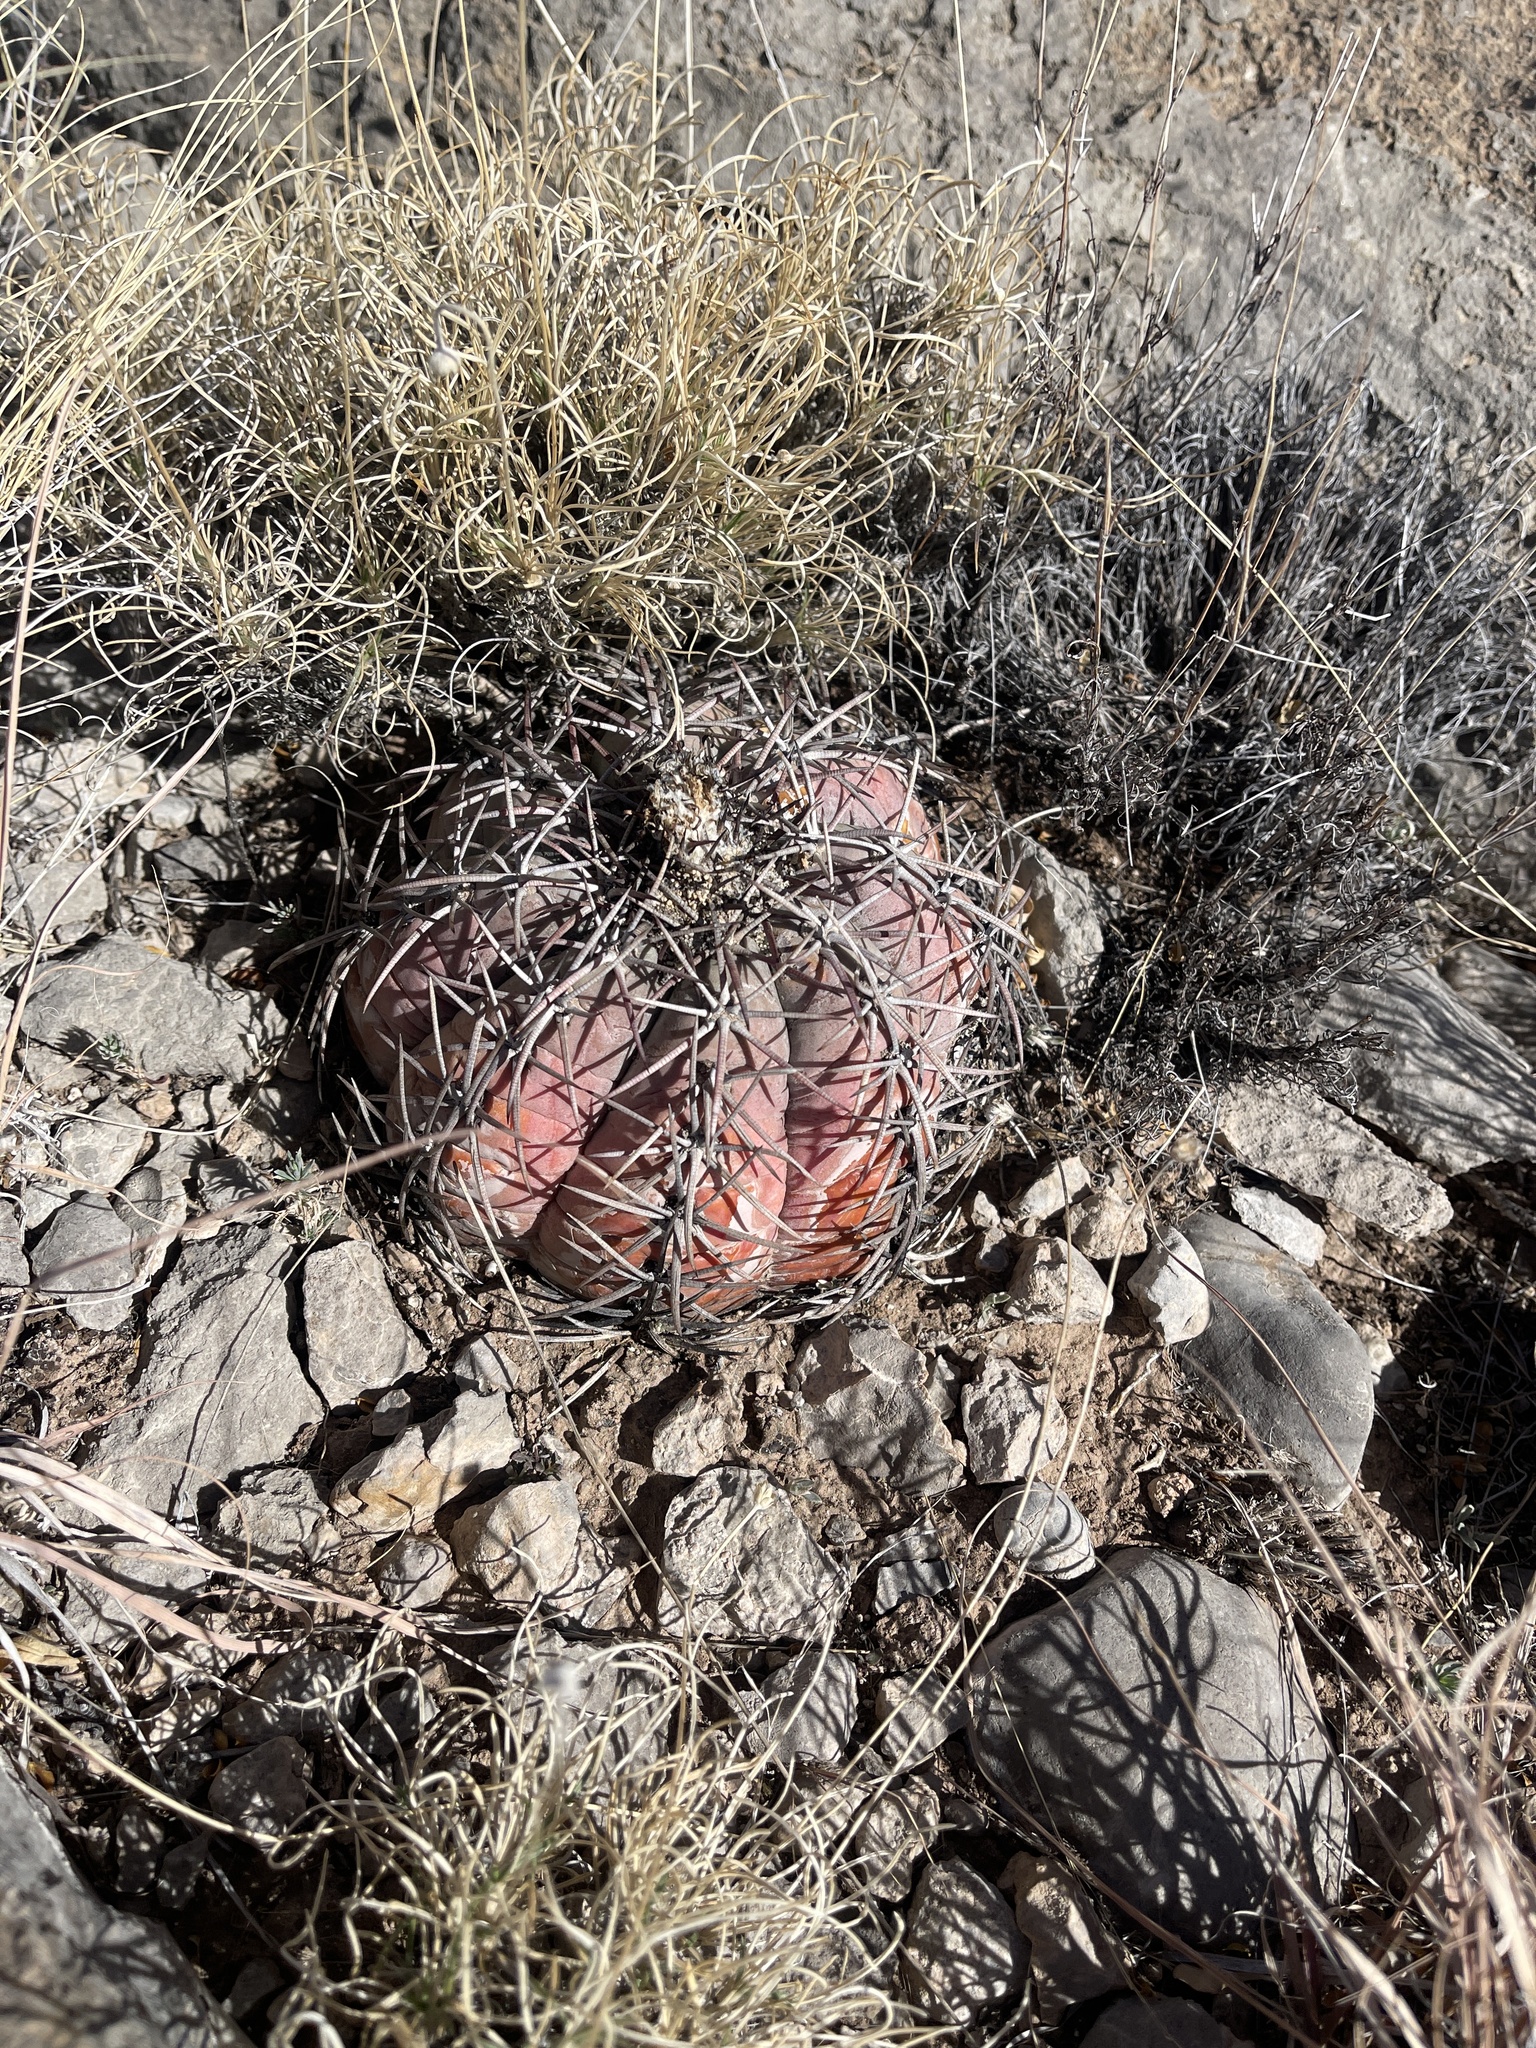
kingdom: Plantae
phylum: Tracheophyta
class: Magnoliopsida
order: Caryophyllales
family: Cactaceae
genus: Echinocactus
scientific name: Echinocactus horizonthalonius
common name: Devilshead
